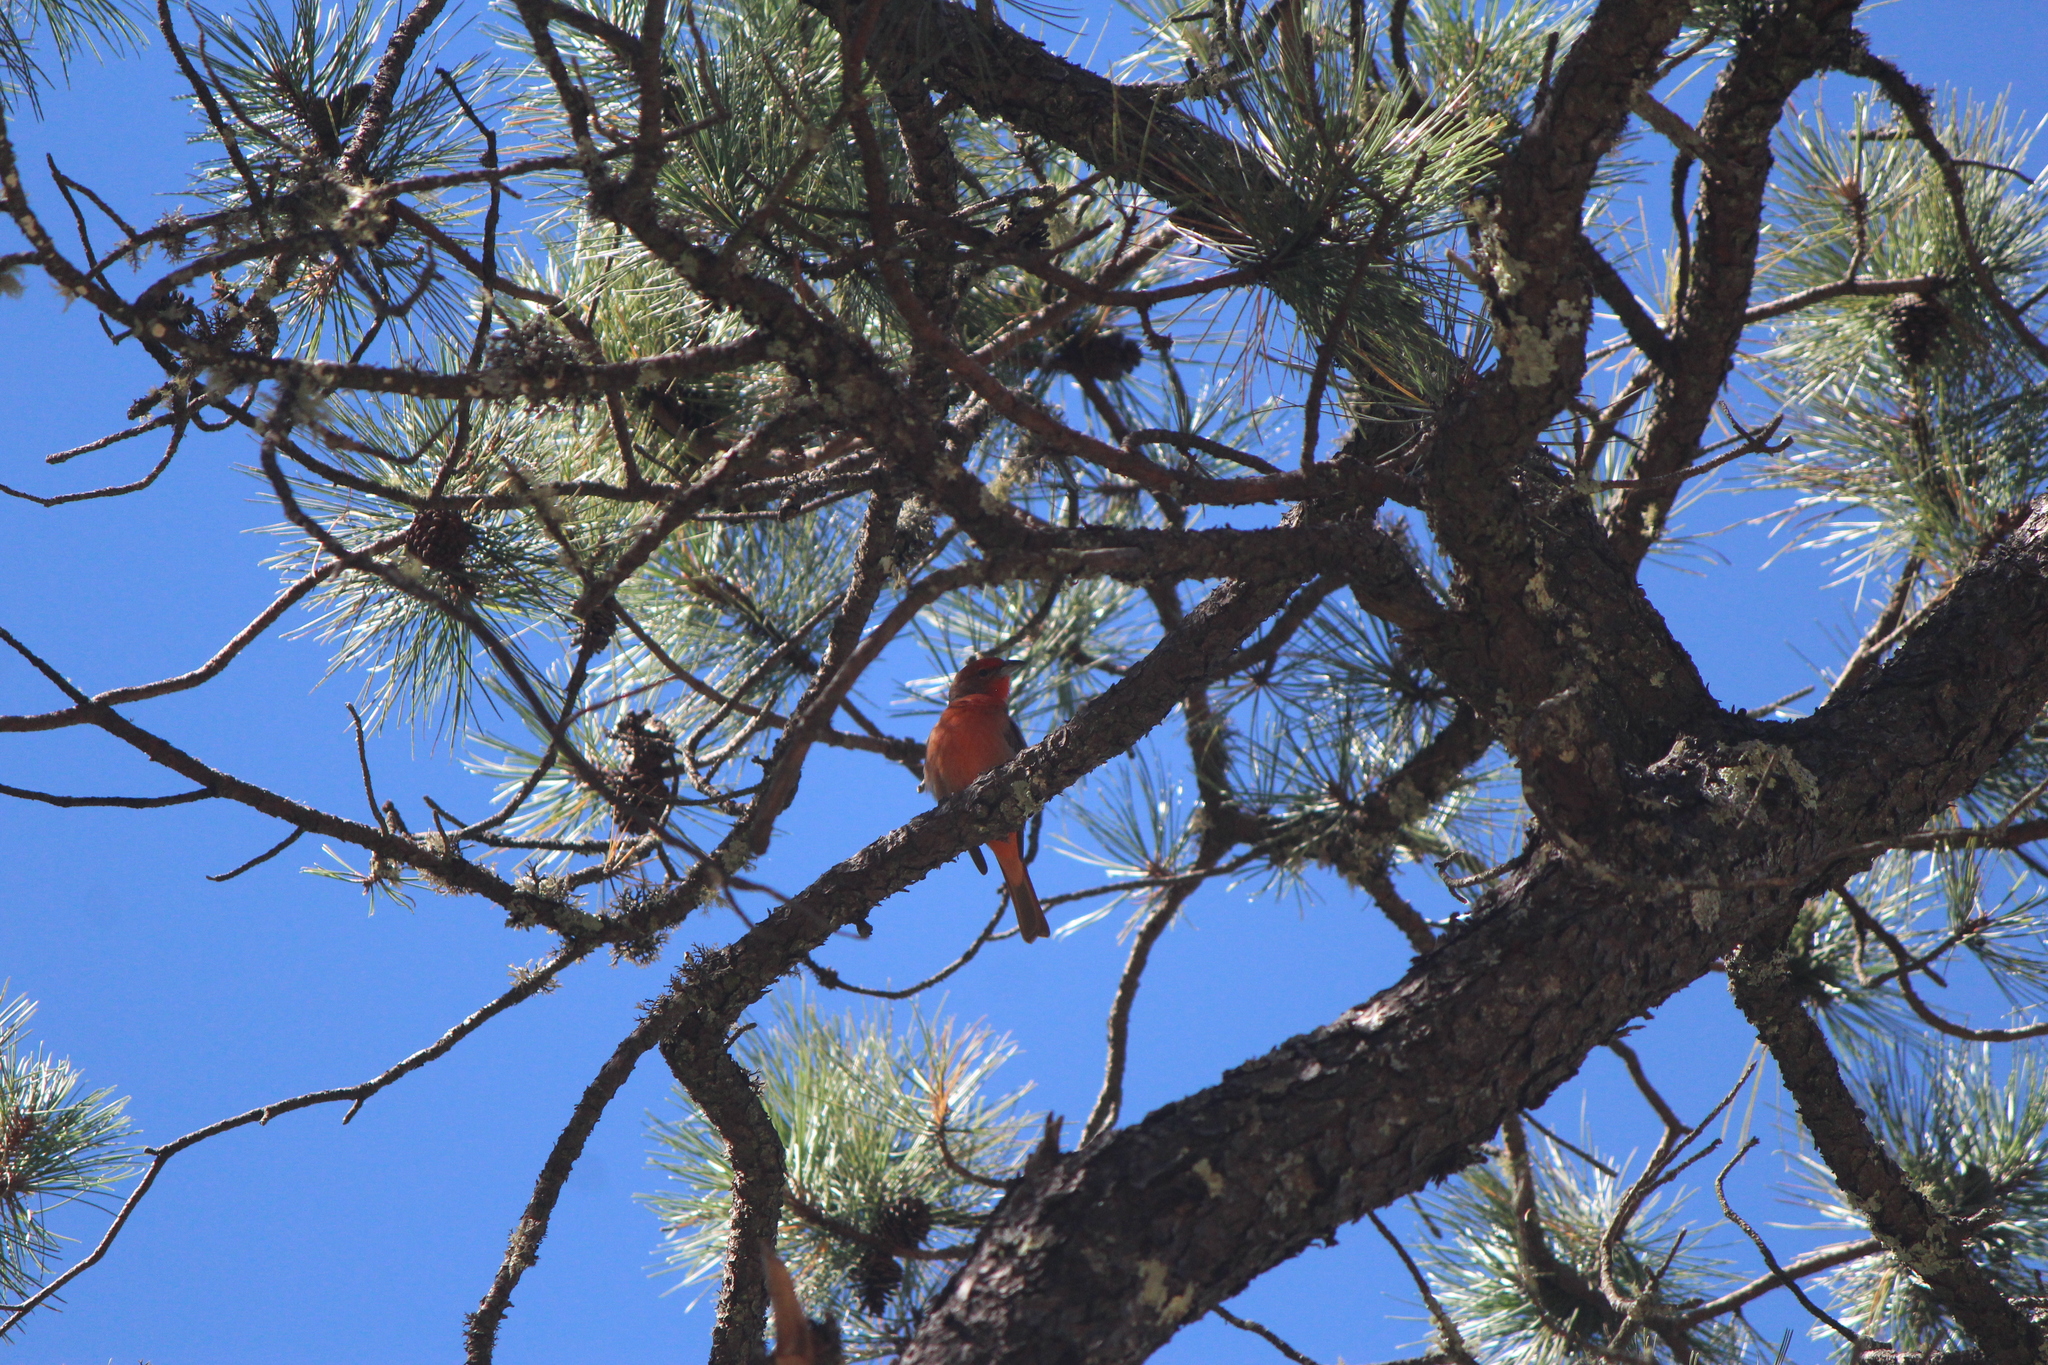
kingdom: Animalia
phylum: Chordata
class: Aves
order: Passeriformes
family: Cardinalidae
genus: Piranga
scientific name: Piranga flava
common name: Red tanager
